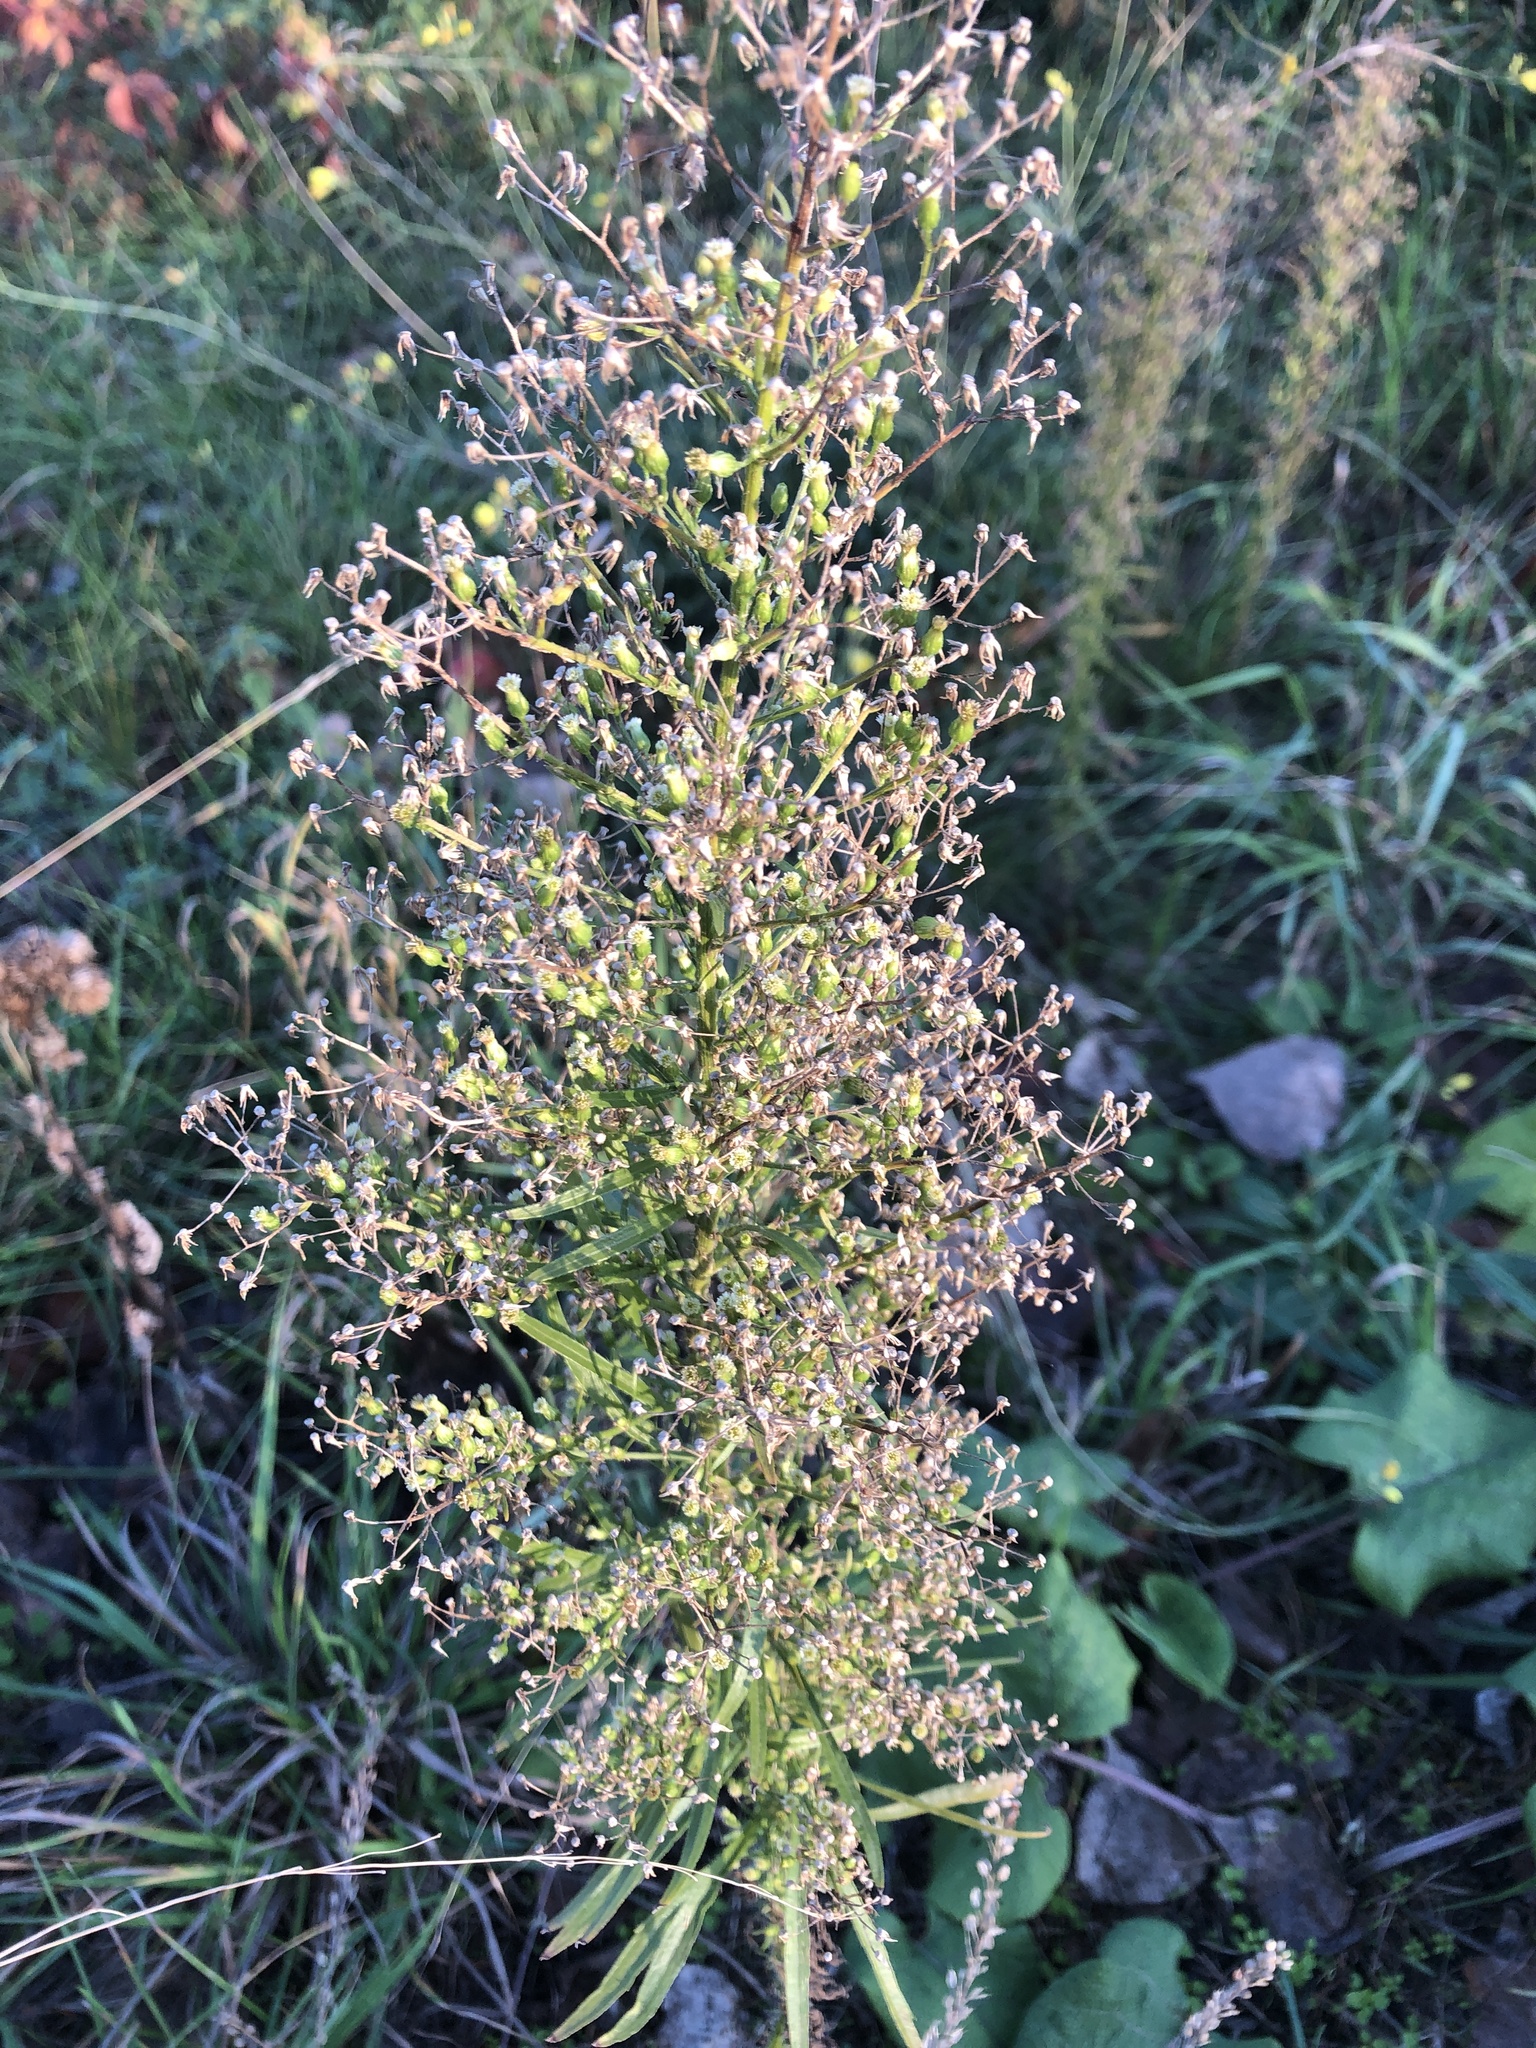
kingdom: Plantae
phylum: Tracheophyta
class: Magnoliopsida
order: Asterales
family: Asteraceae
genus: Erigeron
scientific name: Erigeron canadensis
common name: Canadian fleabane
